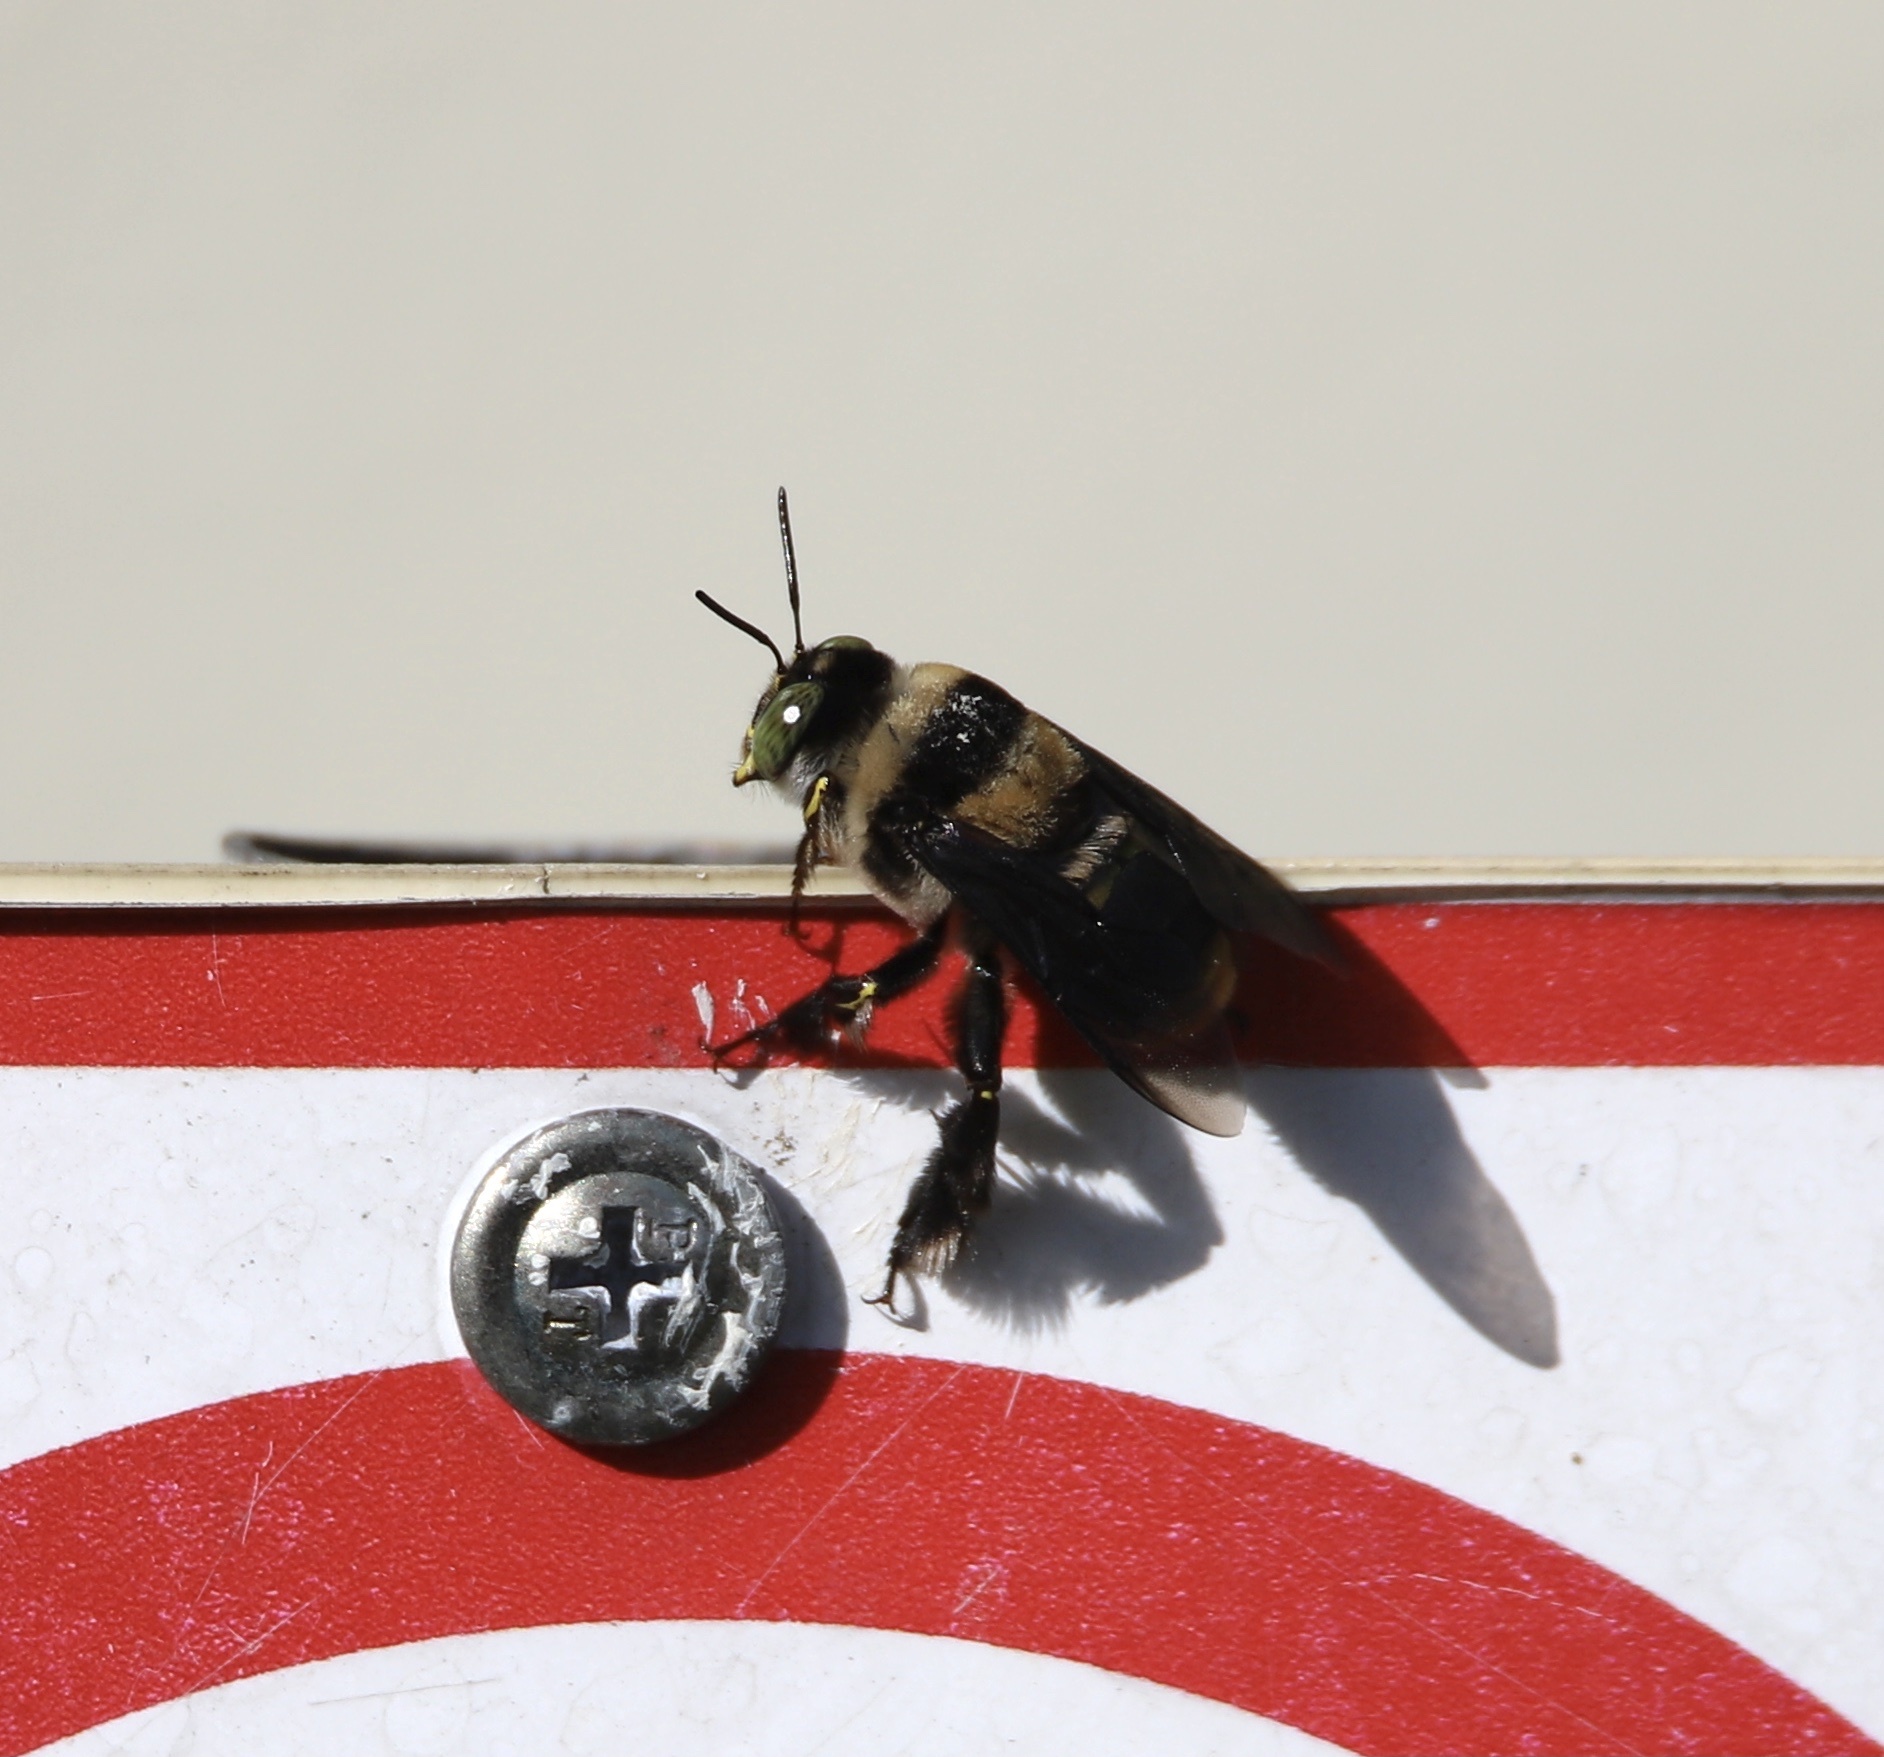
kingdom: Animalia
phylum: Arthropoda
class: Insecta
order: Hymenoptera
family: Apidae
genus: Centris
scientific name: Centris flavifrons
